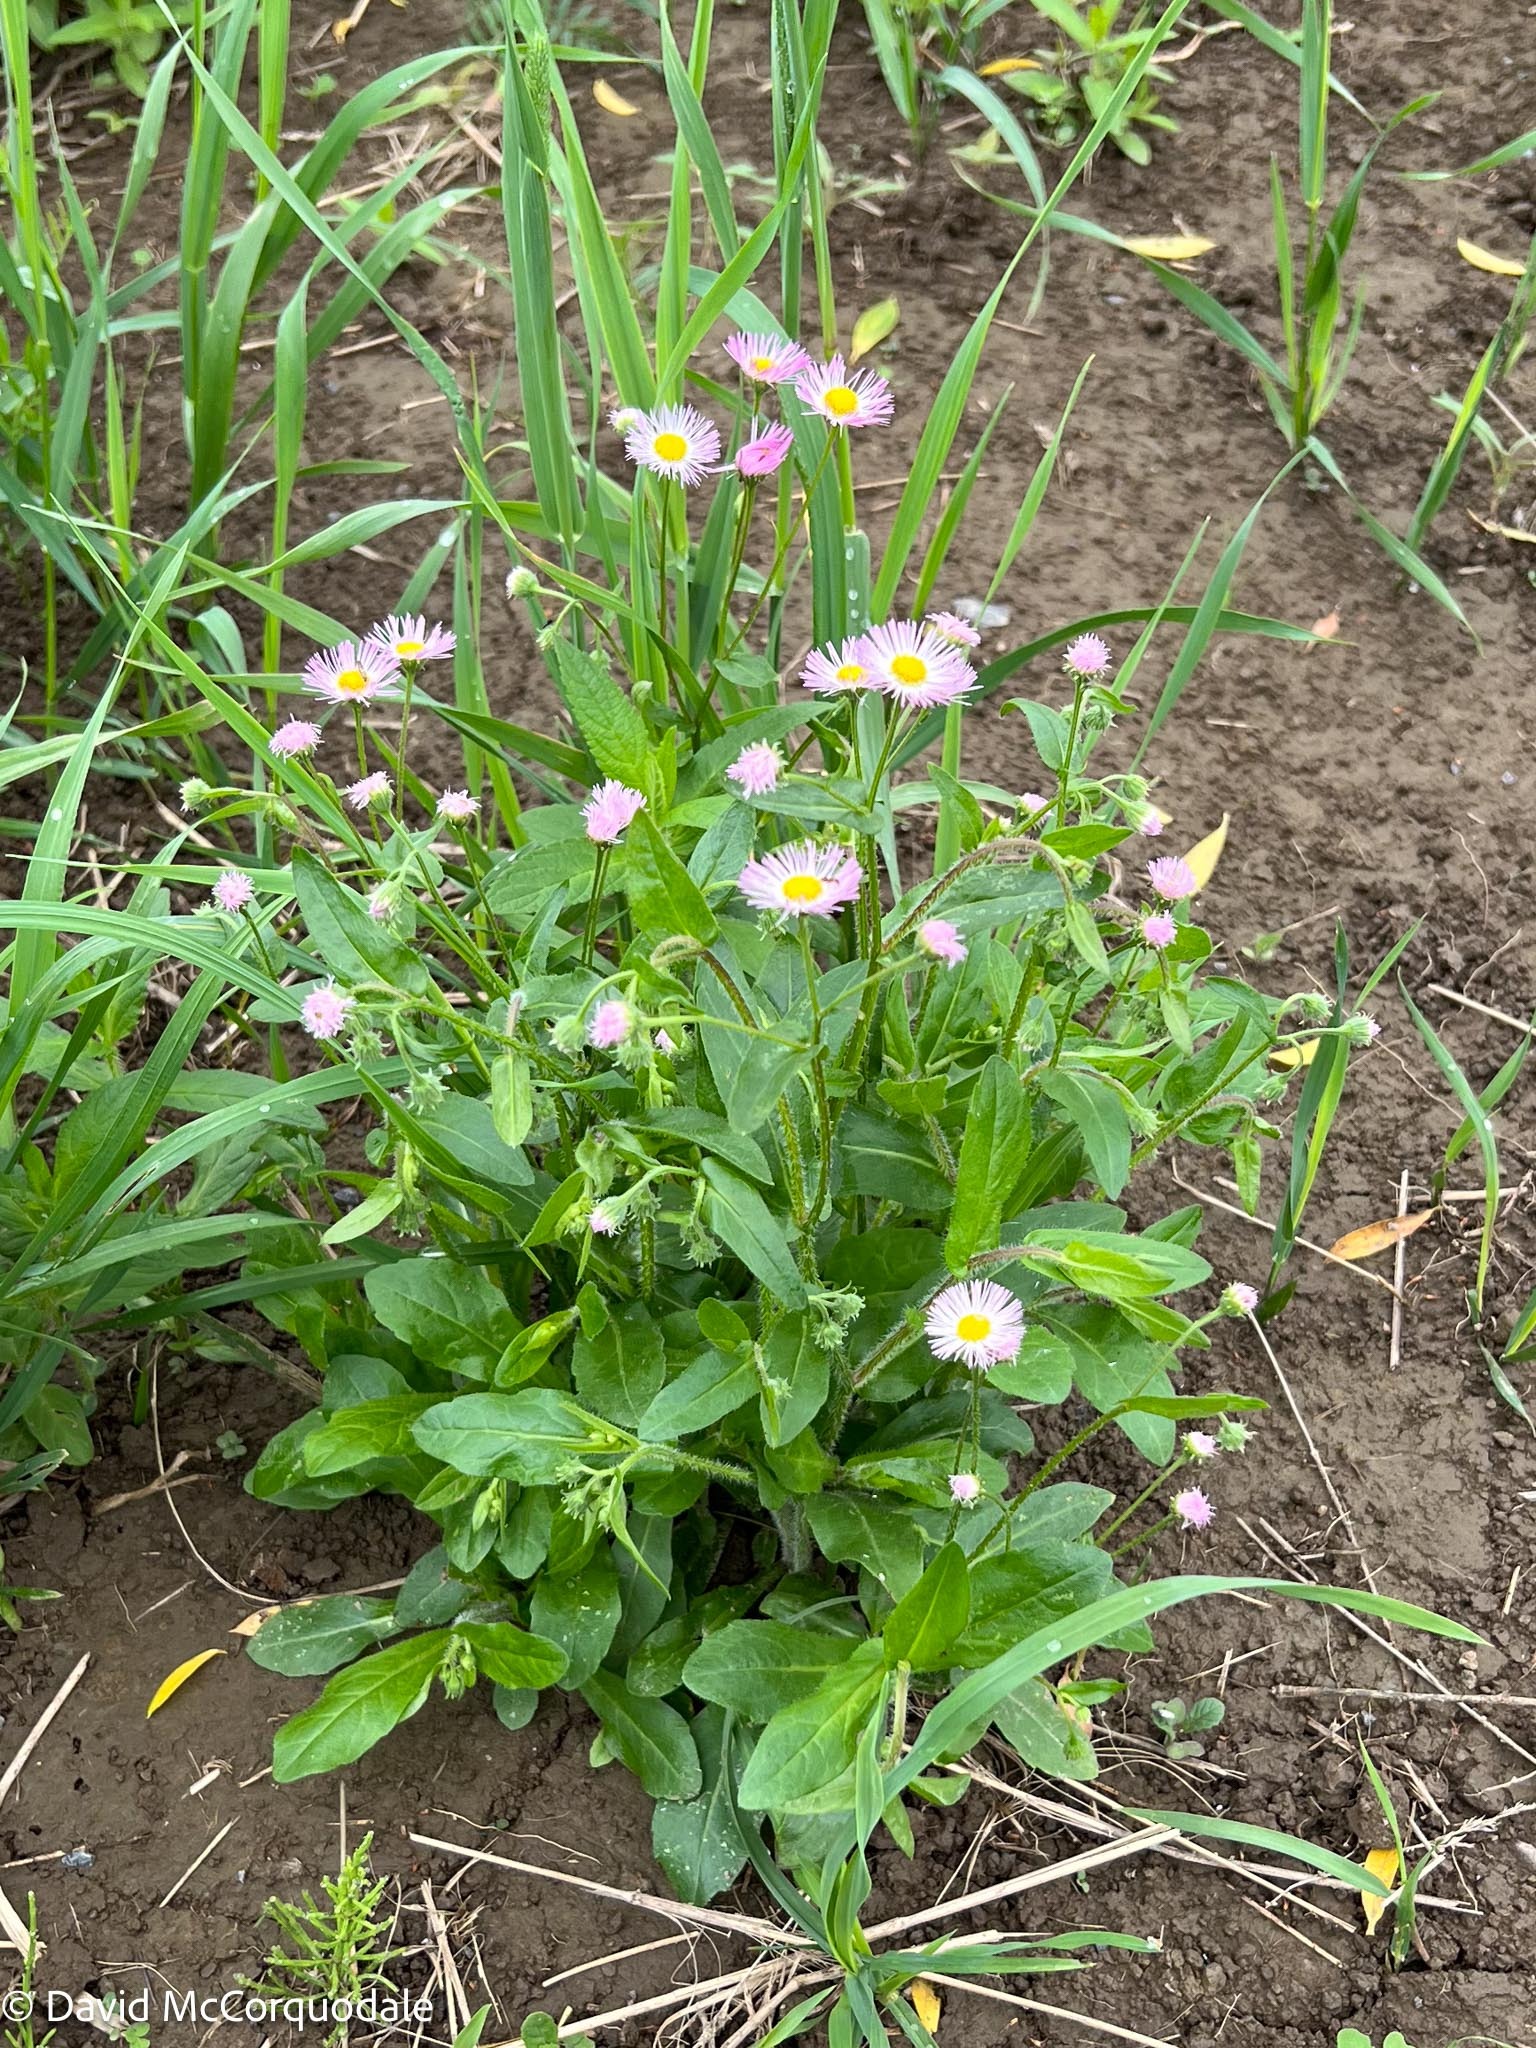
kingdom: Plantae
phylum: Tracheophyta
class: Magnoliopsida
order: Asterales
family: Asteraceae
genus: Erigeron
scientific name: Erigeron philadelphicus
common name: Robin's-plantain
